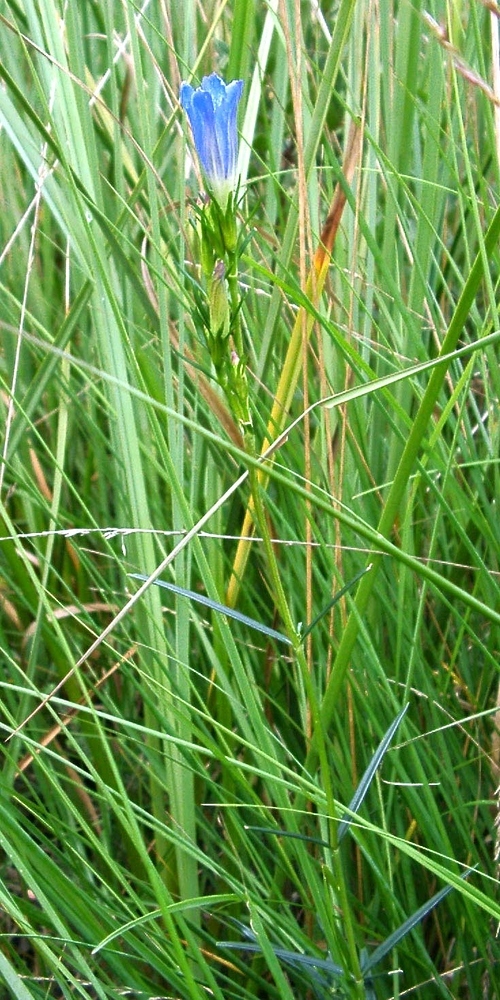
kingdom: Plantae
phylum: Tracheophyta
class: Magnoliopsida
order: Gentianales
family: Gentianaceae
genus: Gentiana
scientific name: Gentiana pneumonanthe
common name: Marsh gentian
